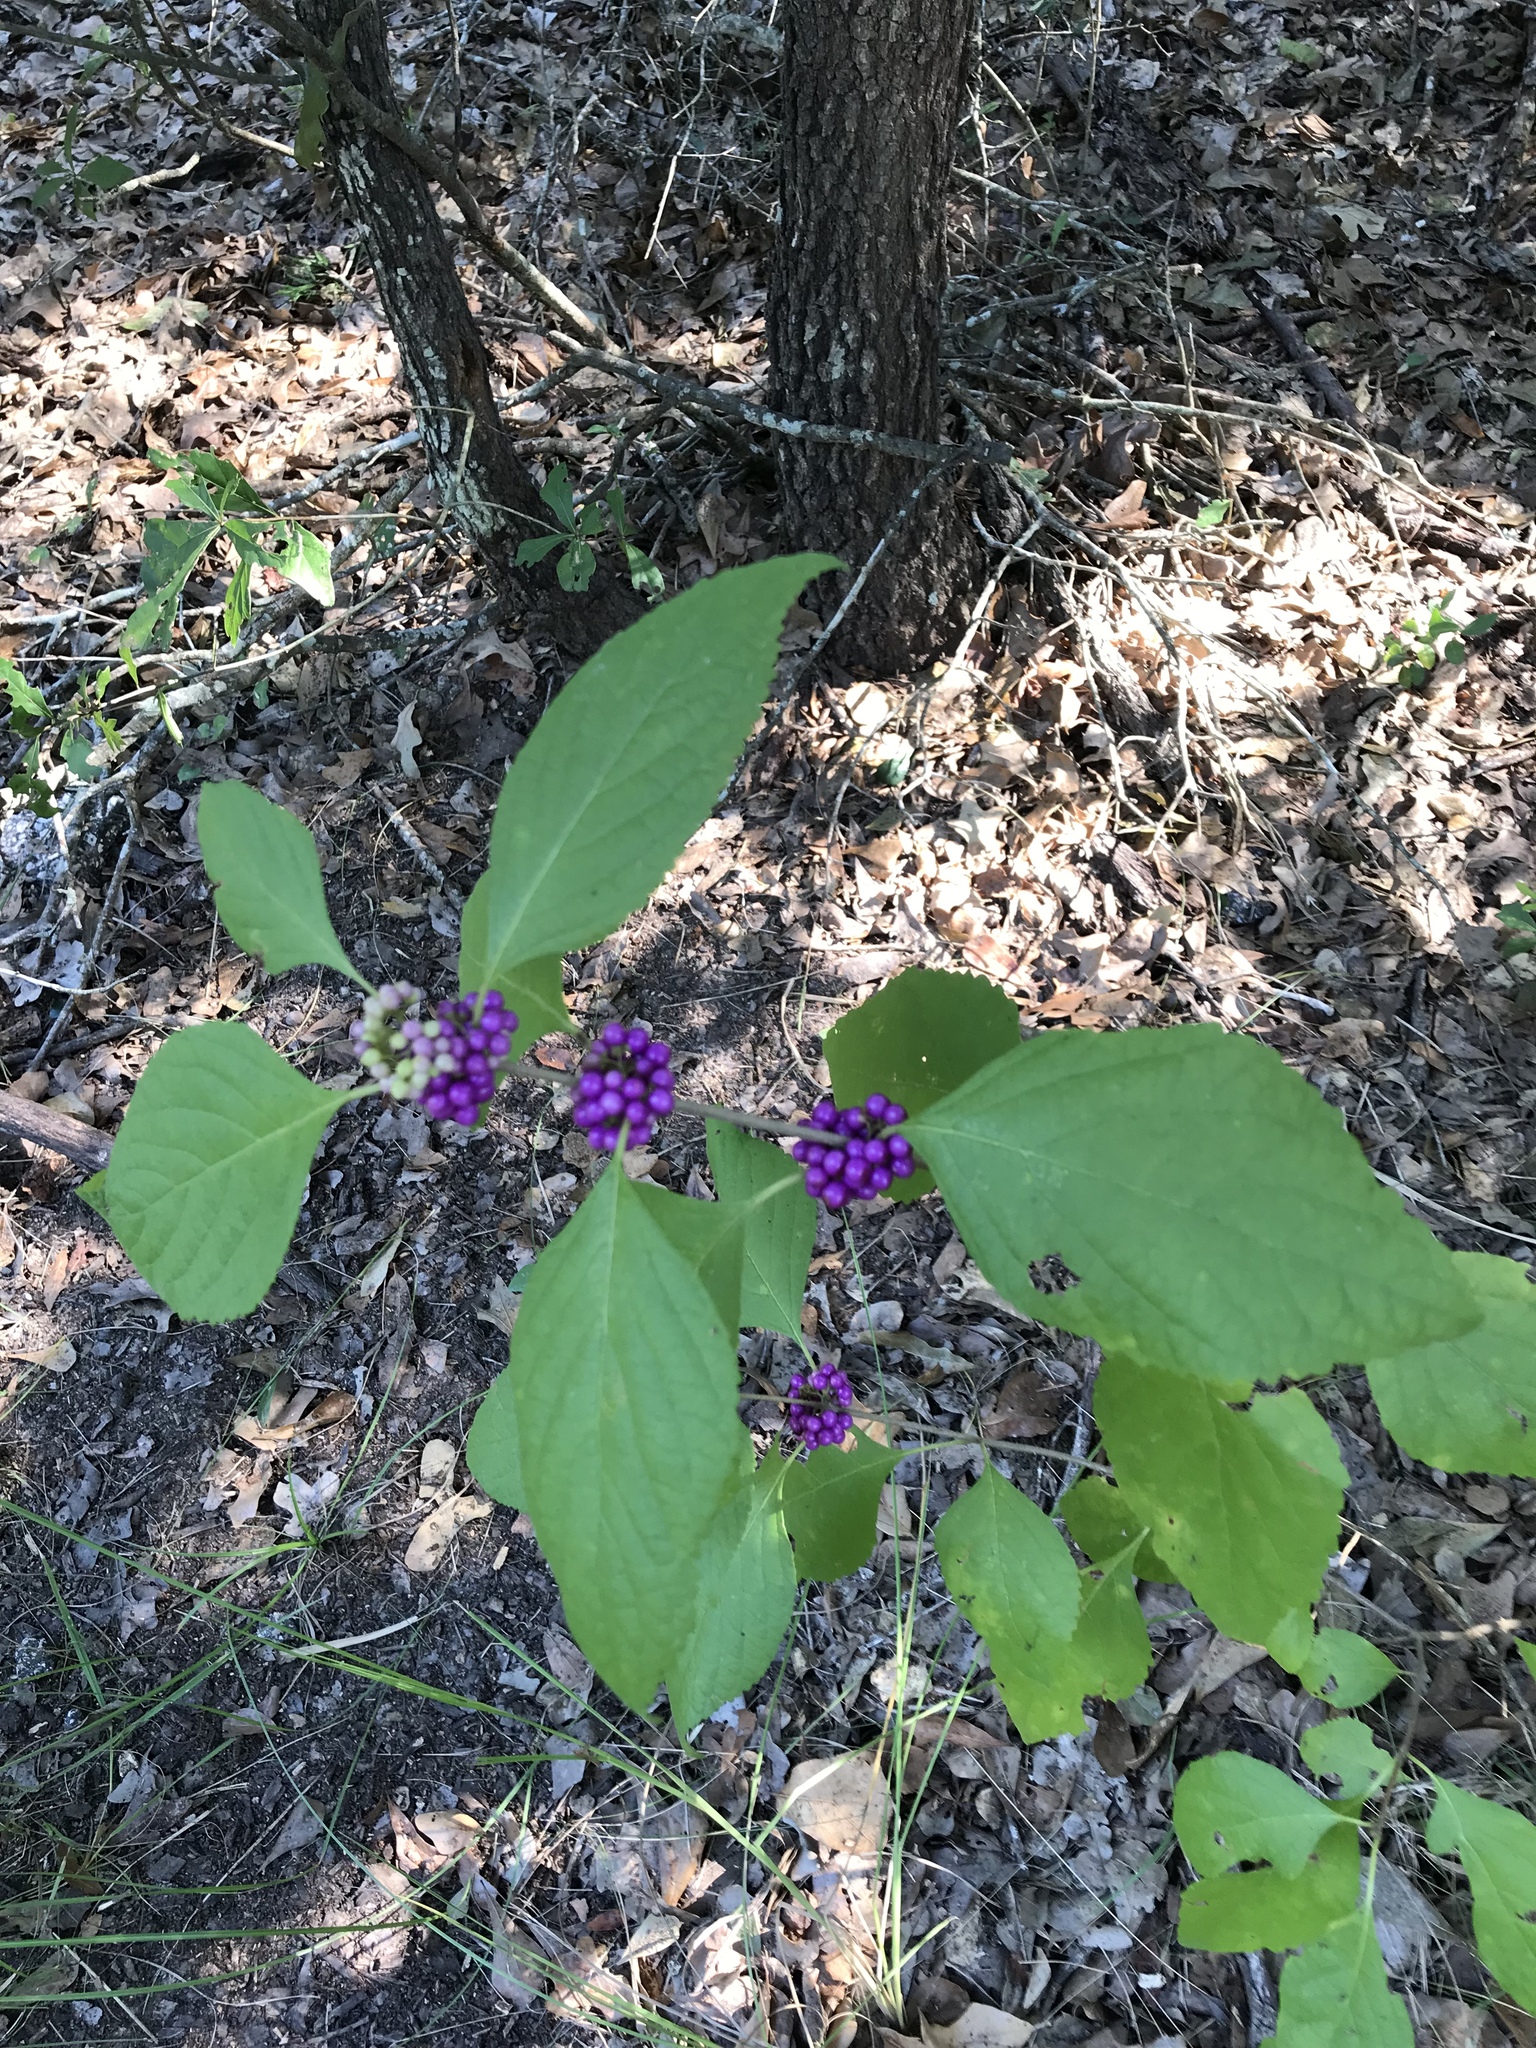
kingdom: Plantae
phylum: Tracheophyta
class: Magnoliopsida
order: Lamiales
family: Lamiaceae
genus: Callicarpa
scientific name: Callicarpa americana
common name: American beautyberry
